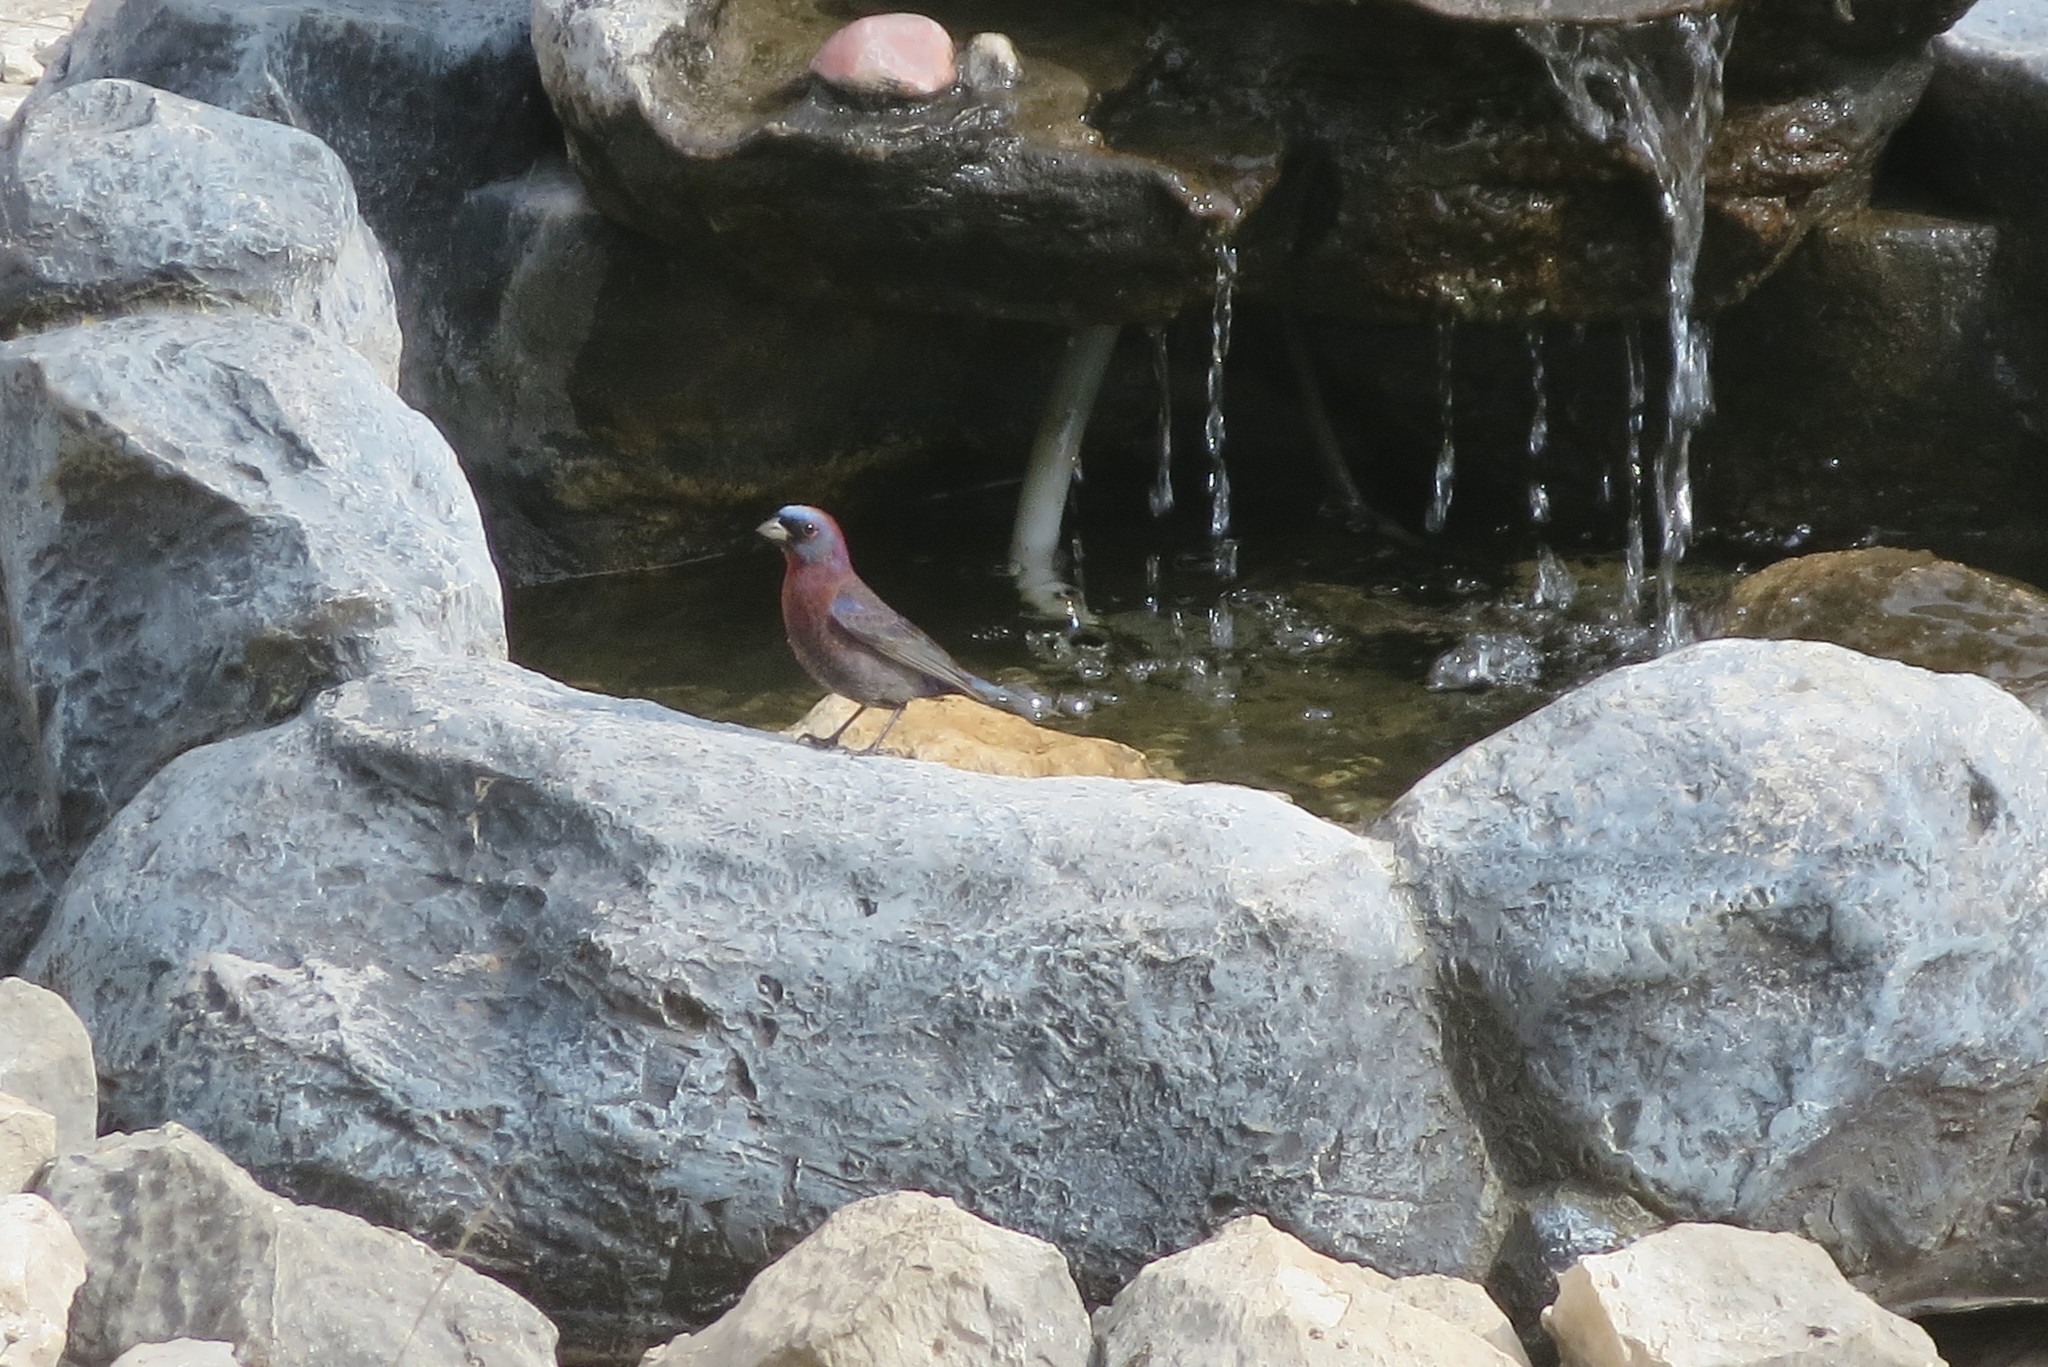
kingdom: Animalia
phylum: Chordata
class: Aves
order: Passeriformes
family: Cardinalidae
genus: Passerina
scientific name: Passerina versicolor
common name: Varied bunting
